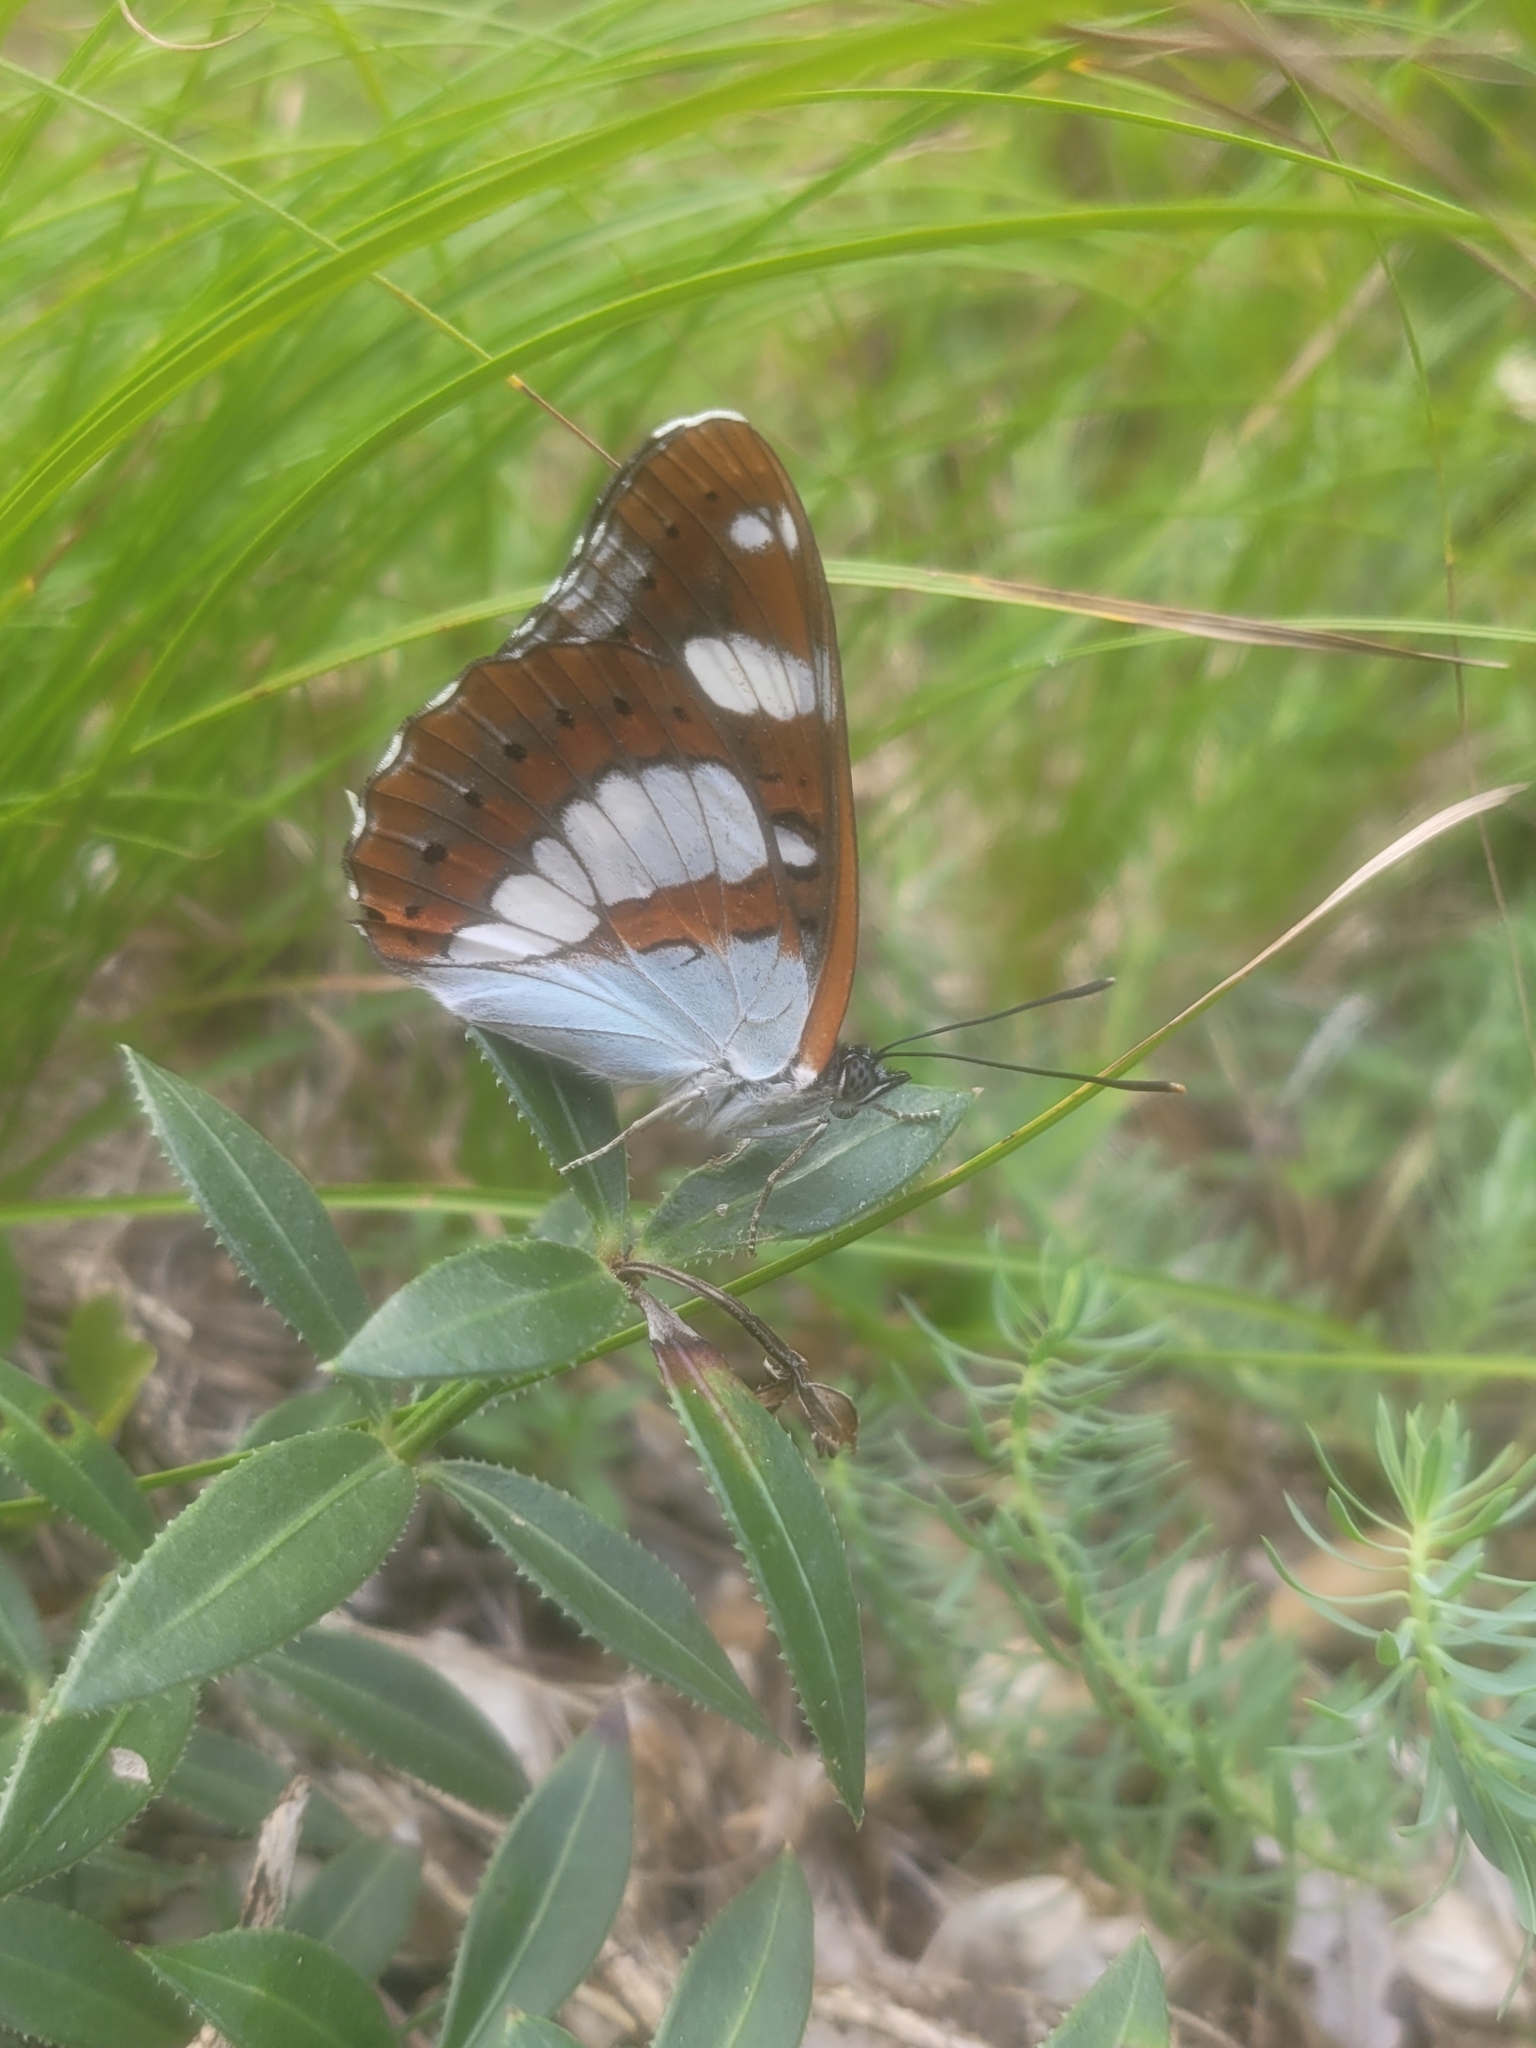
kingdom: Animalia
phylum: Arthropoda
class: Insecta
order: Lepidoptera
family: Nymphalidae
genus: Limenitis
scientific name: Limenitis reducta
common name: Southern white admiral
